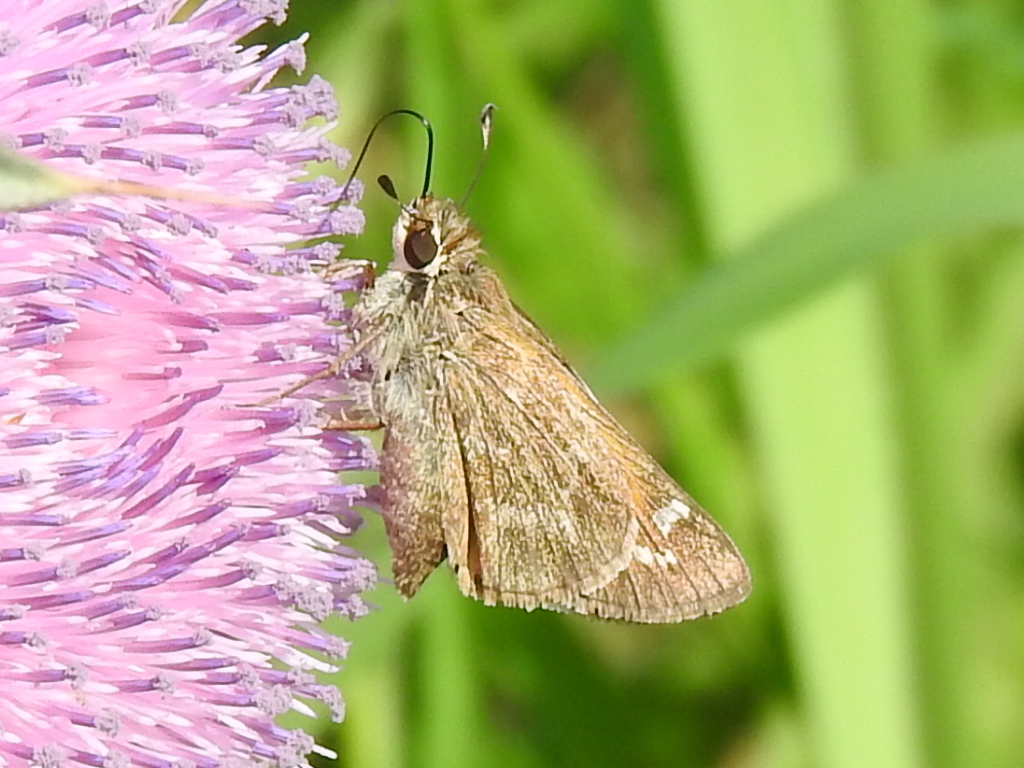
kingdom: Animalia
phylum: Arthropoda
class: Insecta
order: Lepidoptera
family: Hesperiidae
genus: Atalopedes
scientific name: Atalopedes
